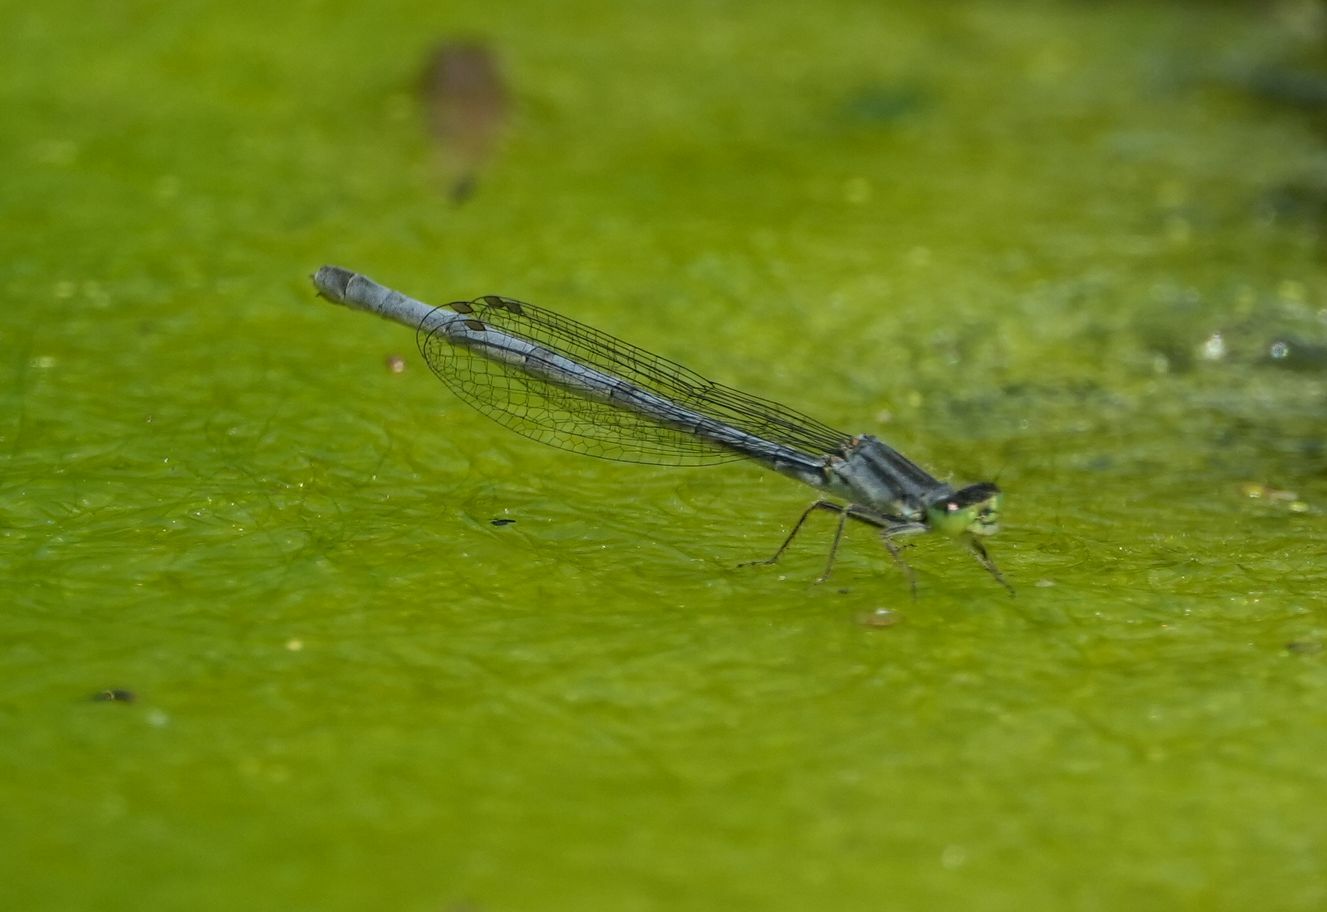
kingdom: Animalia
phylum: Arthropoda
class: Insecta
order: Odonata
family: Coenagrionidae
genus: Ischnura
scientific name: Ischnura verticalis
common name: Eastern forktail
